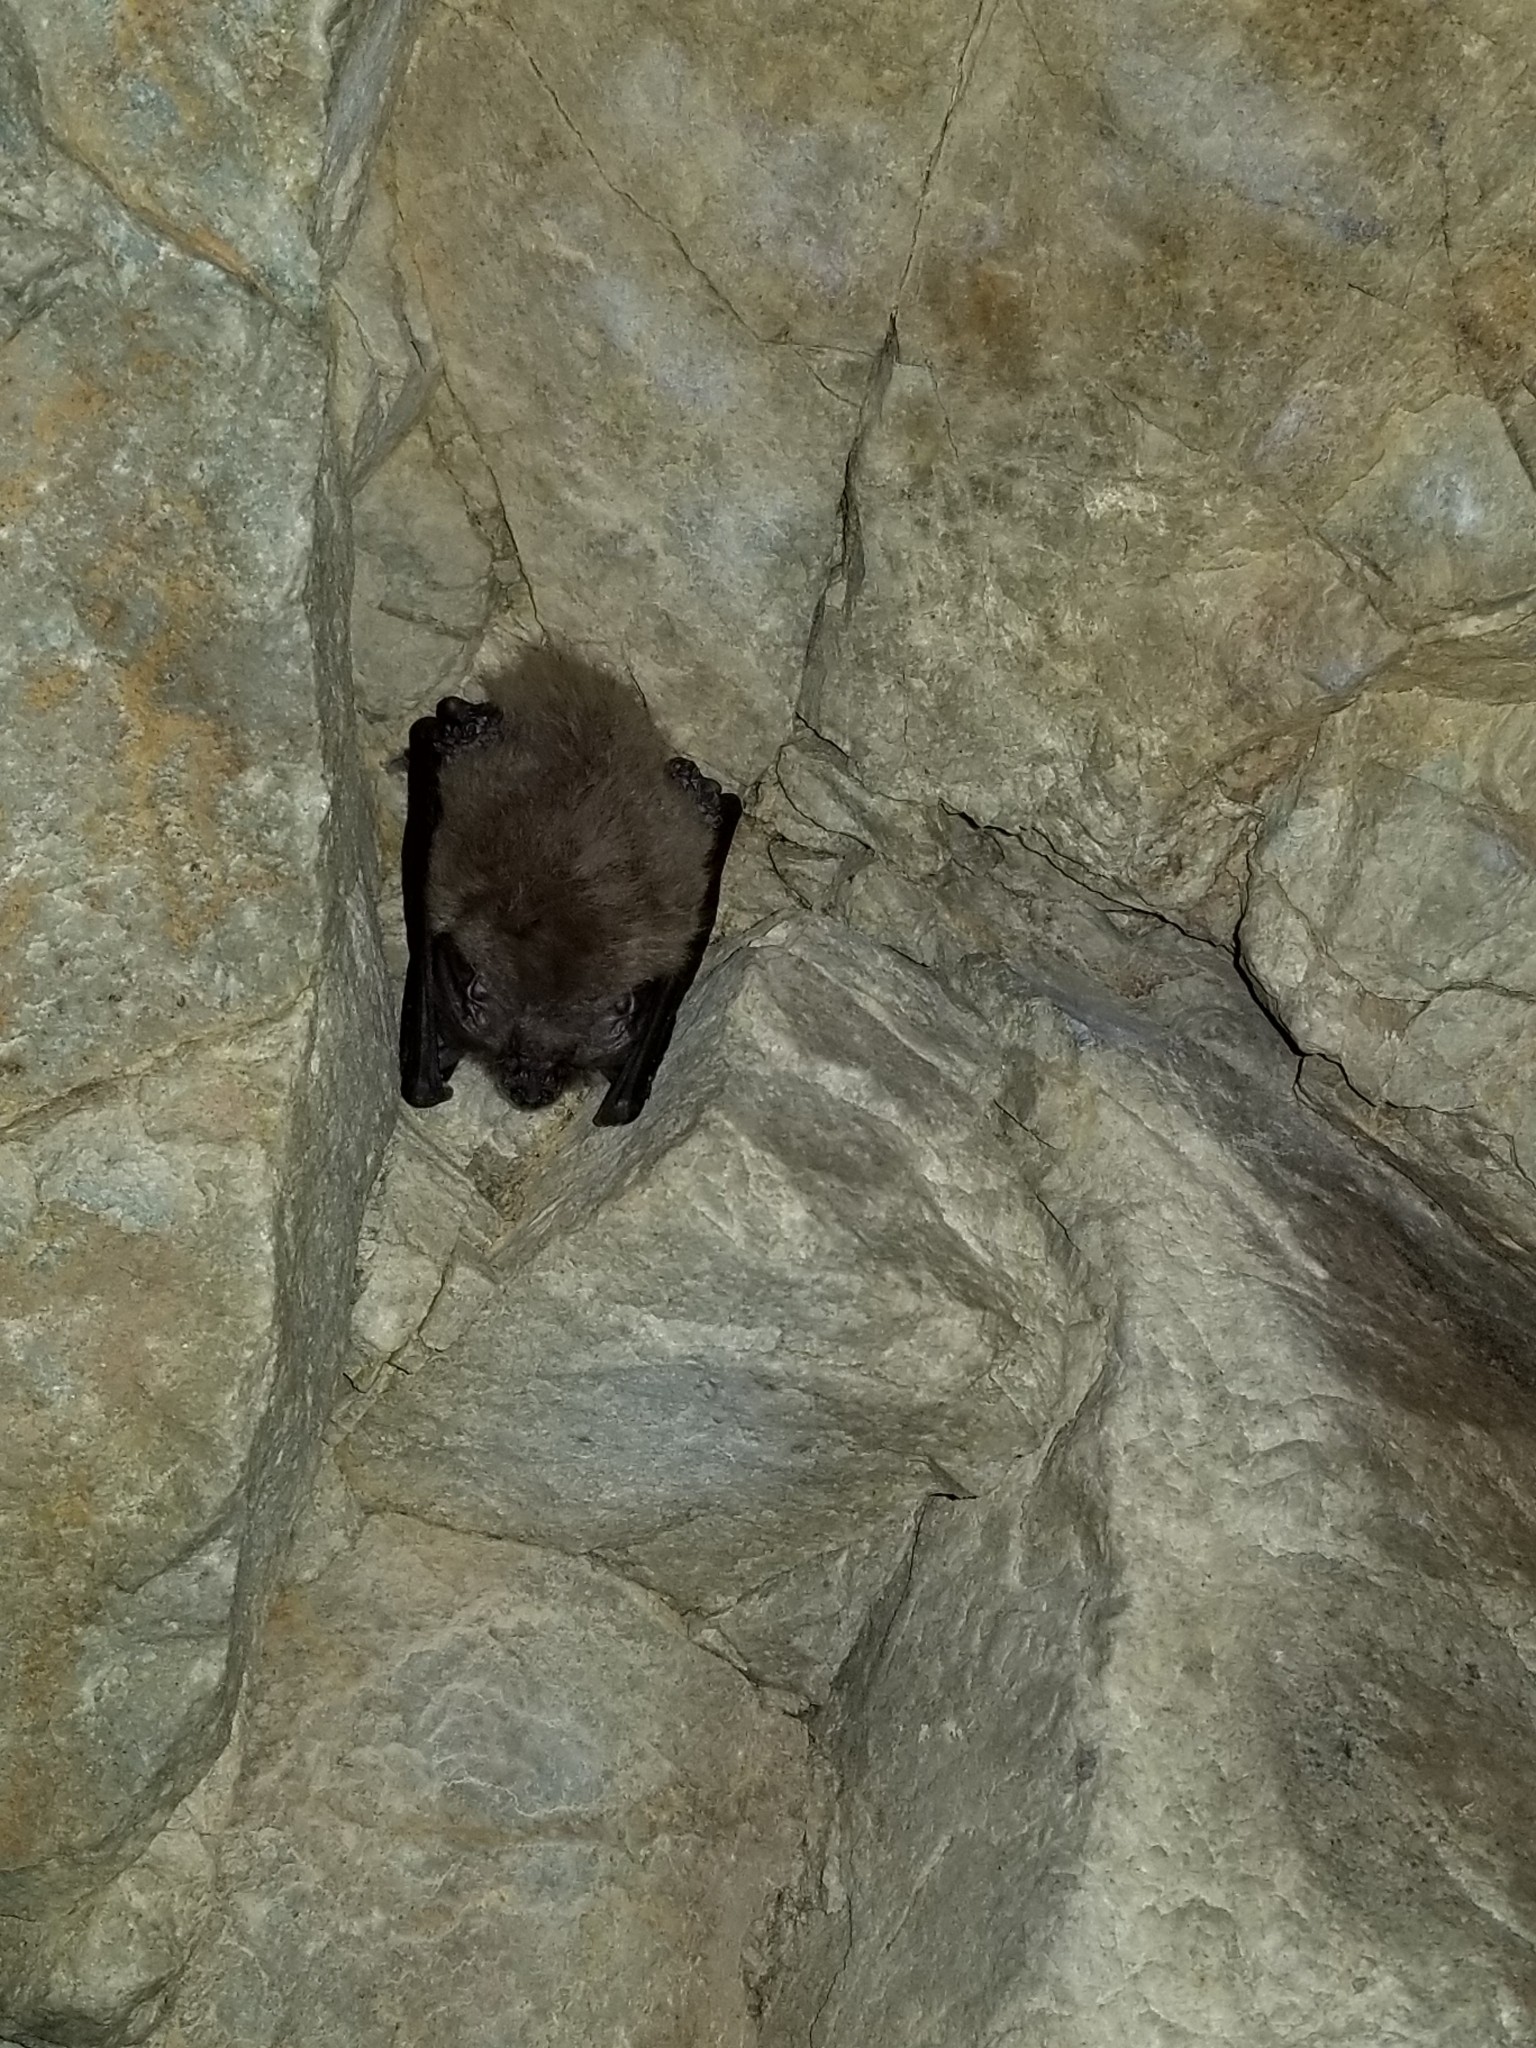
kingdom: Animalia
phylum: Chordata
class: Mammalia
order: Chiroptera
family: Vespertilionidae
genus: Corynorhinus
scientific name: Corynorhinus townsendii
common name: Townsend's big-eared bat
